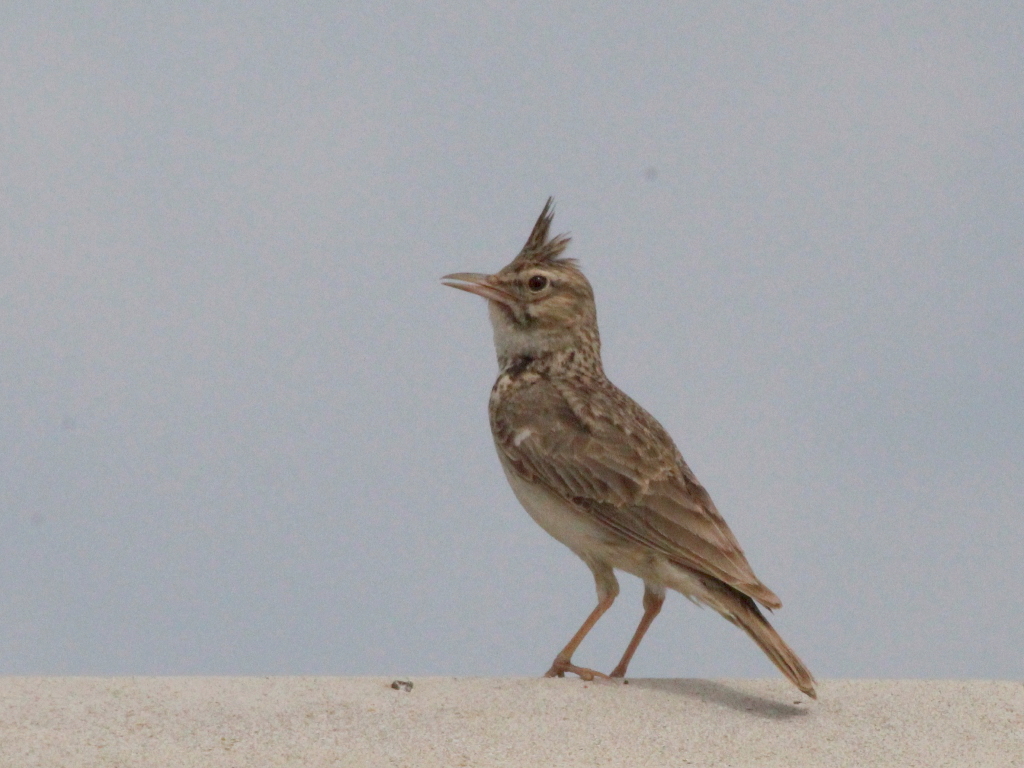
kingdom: Animalia
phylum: Chordata
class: Aves
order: Passeriformes
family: Alaudidae
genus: Galerida
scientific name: Galerida cristata
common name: Crested lark
